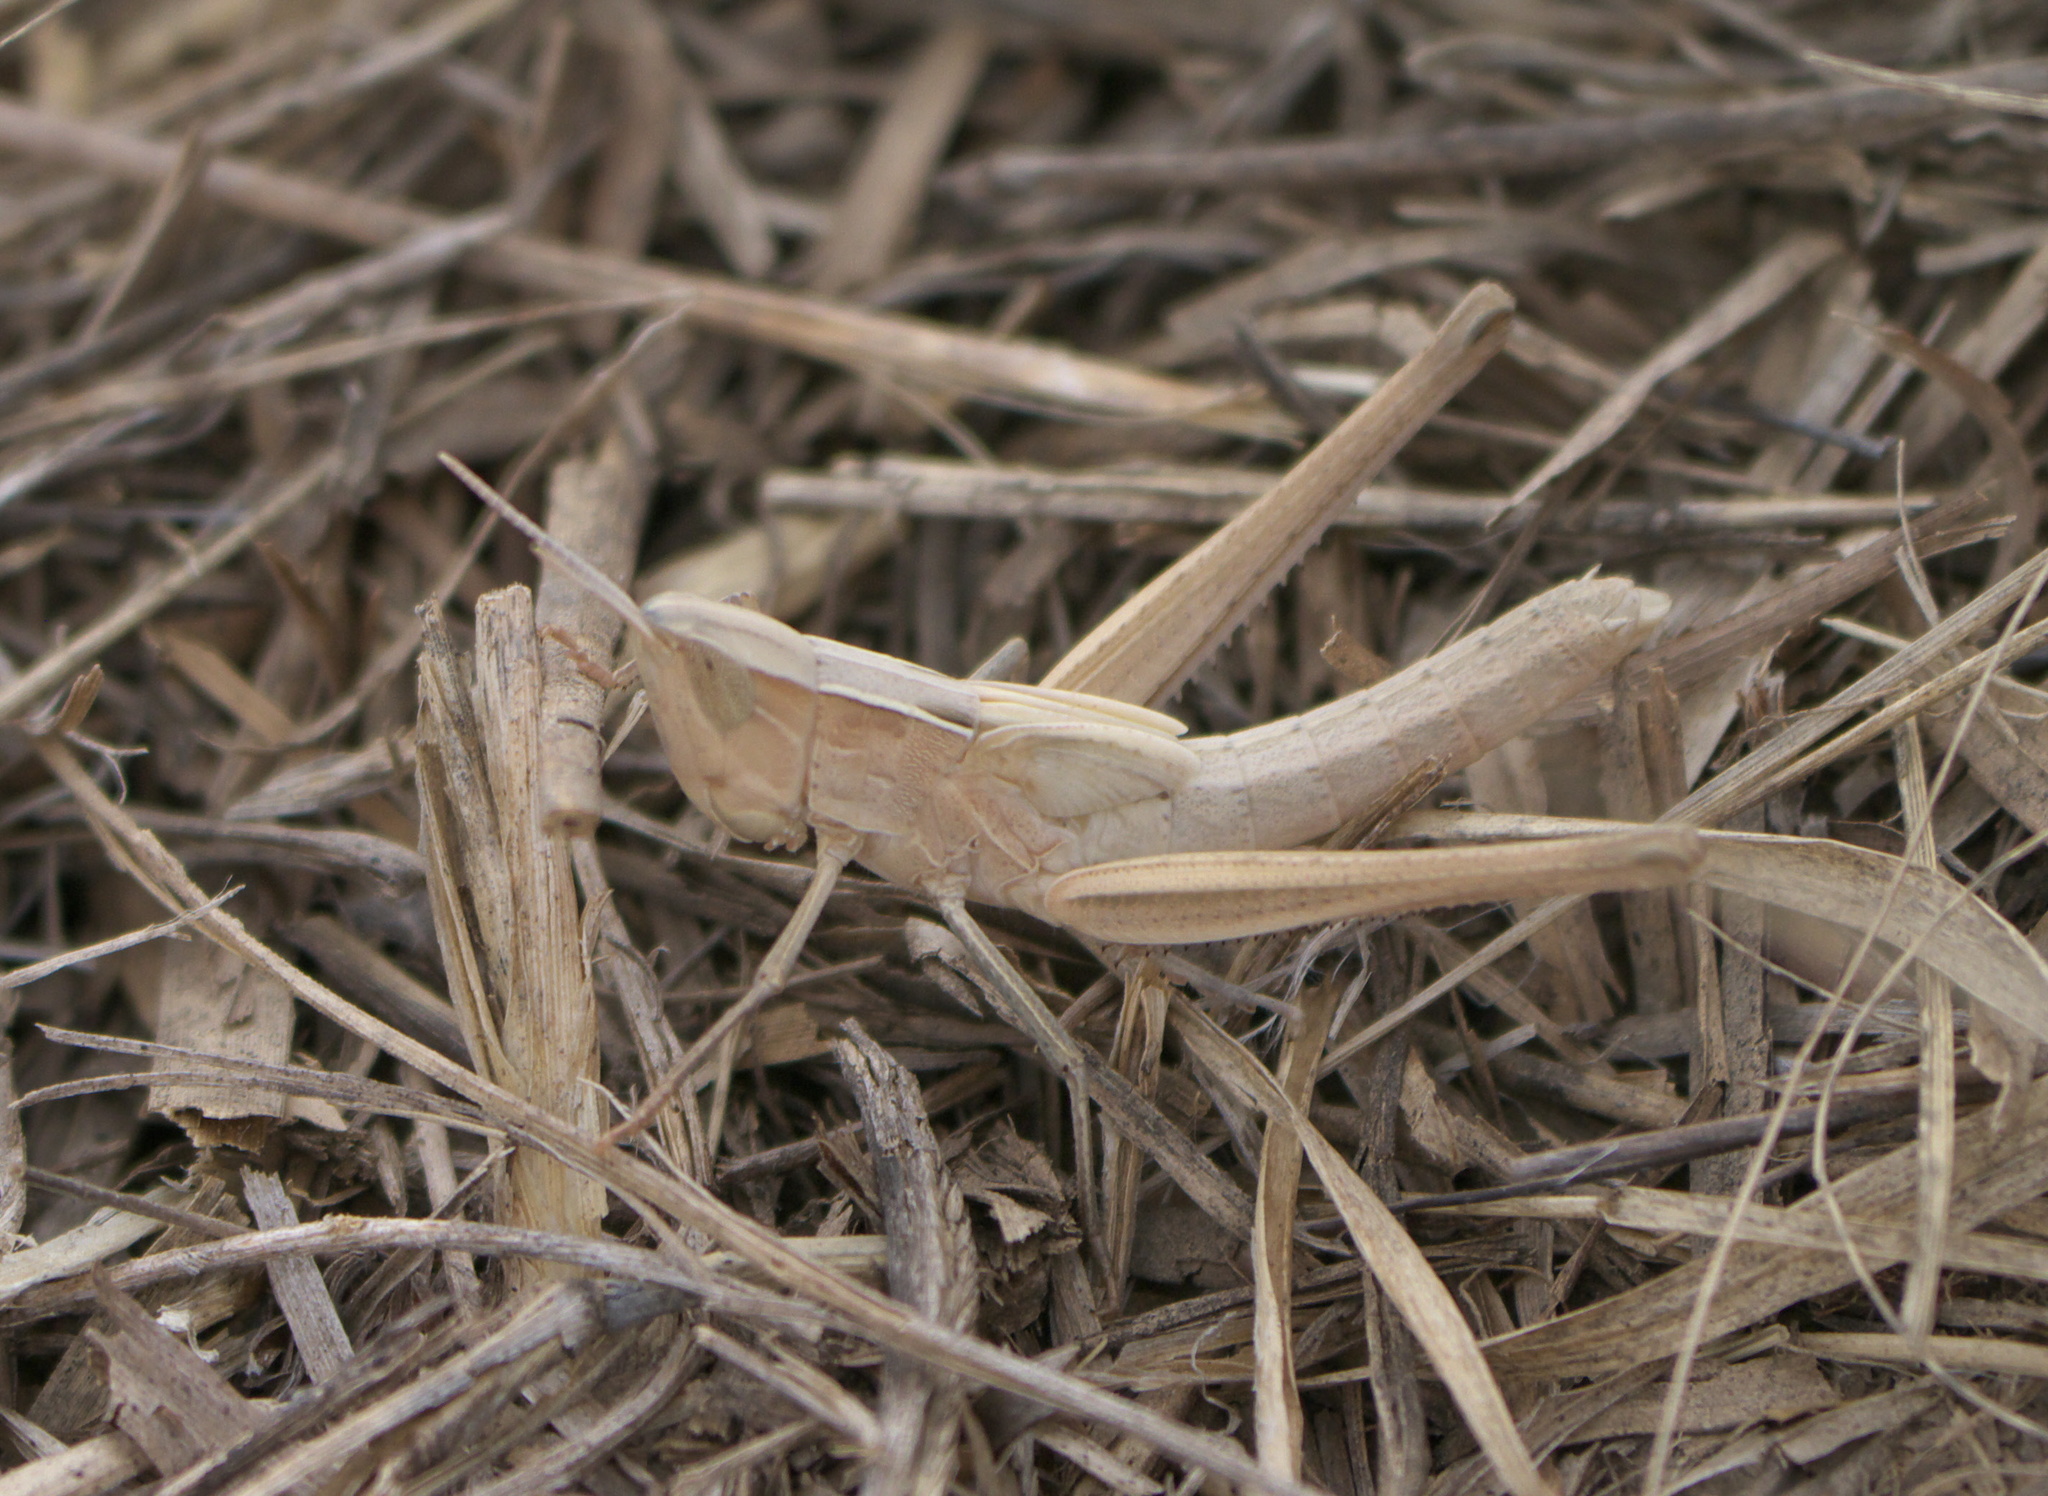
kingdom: Animalia
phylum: Arthropoda
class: Insecta
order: Orthoptera
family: Acrididae
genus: Syrbula
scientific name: Syrbula admirabilis
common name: Handsome grasshopper
